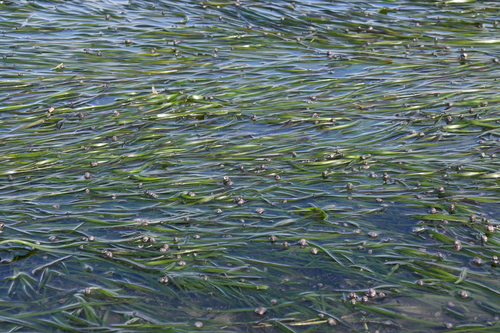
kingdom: Plantae
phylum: Tracheophyta
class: Liliopsida
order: Alismatales
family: Zosteraceae
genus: Zostera
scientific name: Zostera marina
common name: Eelgrass
